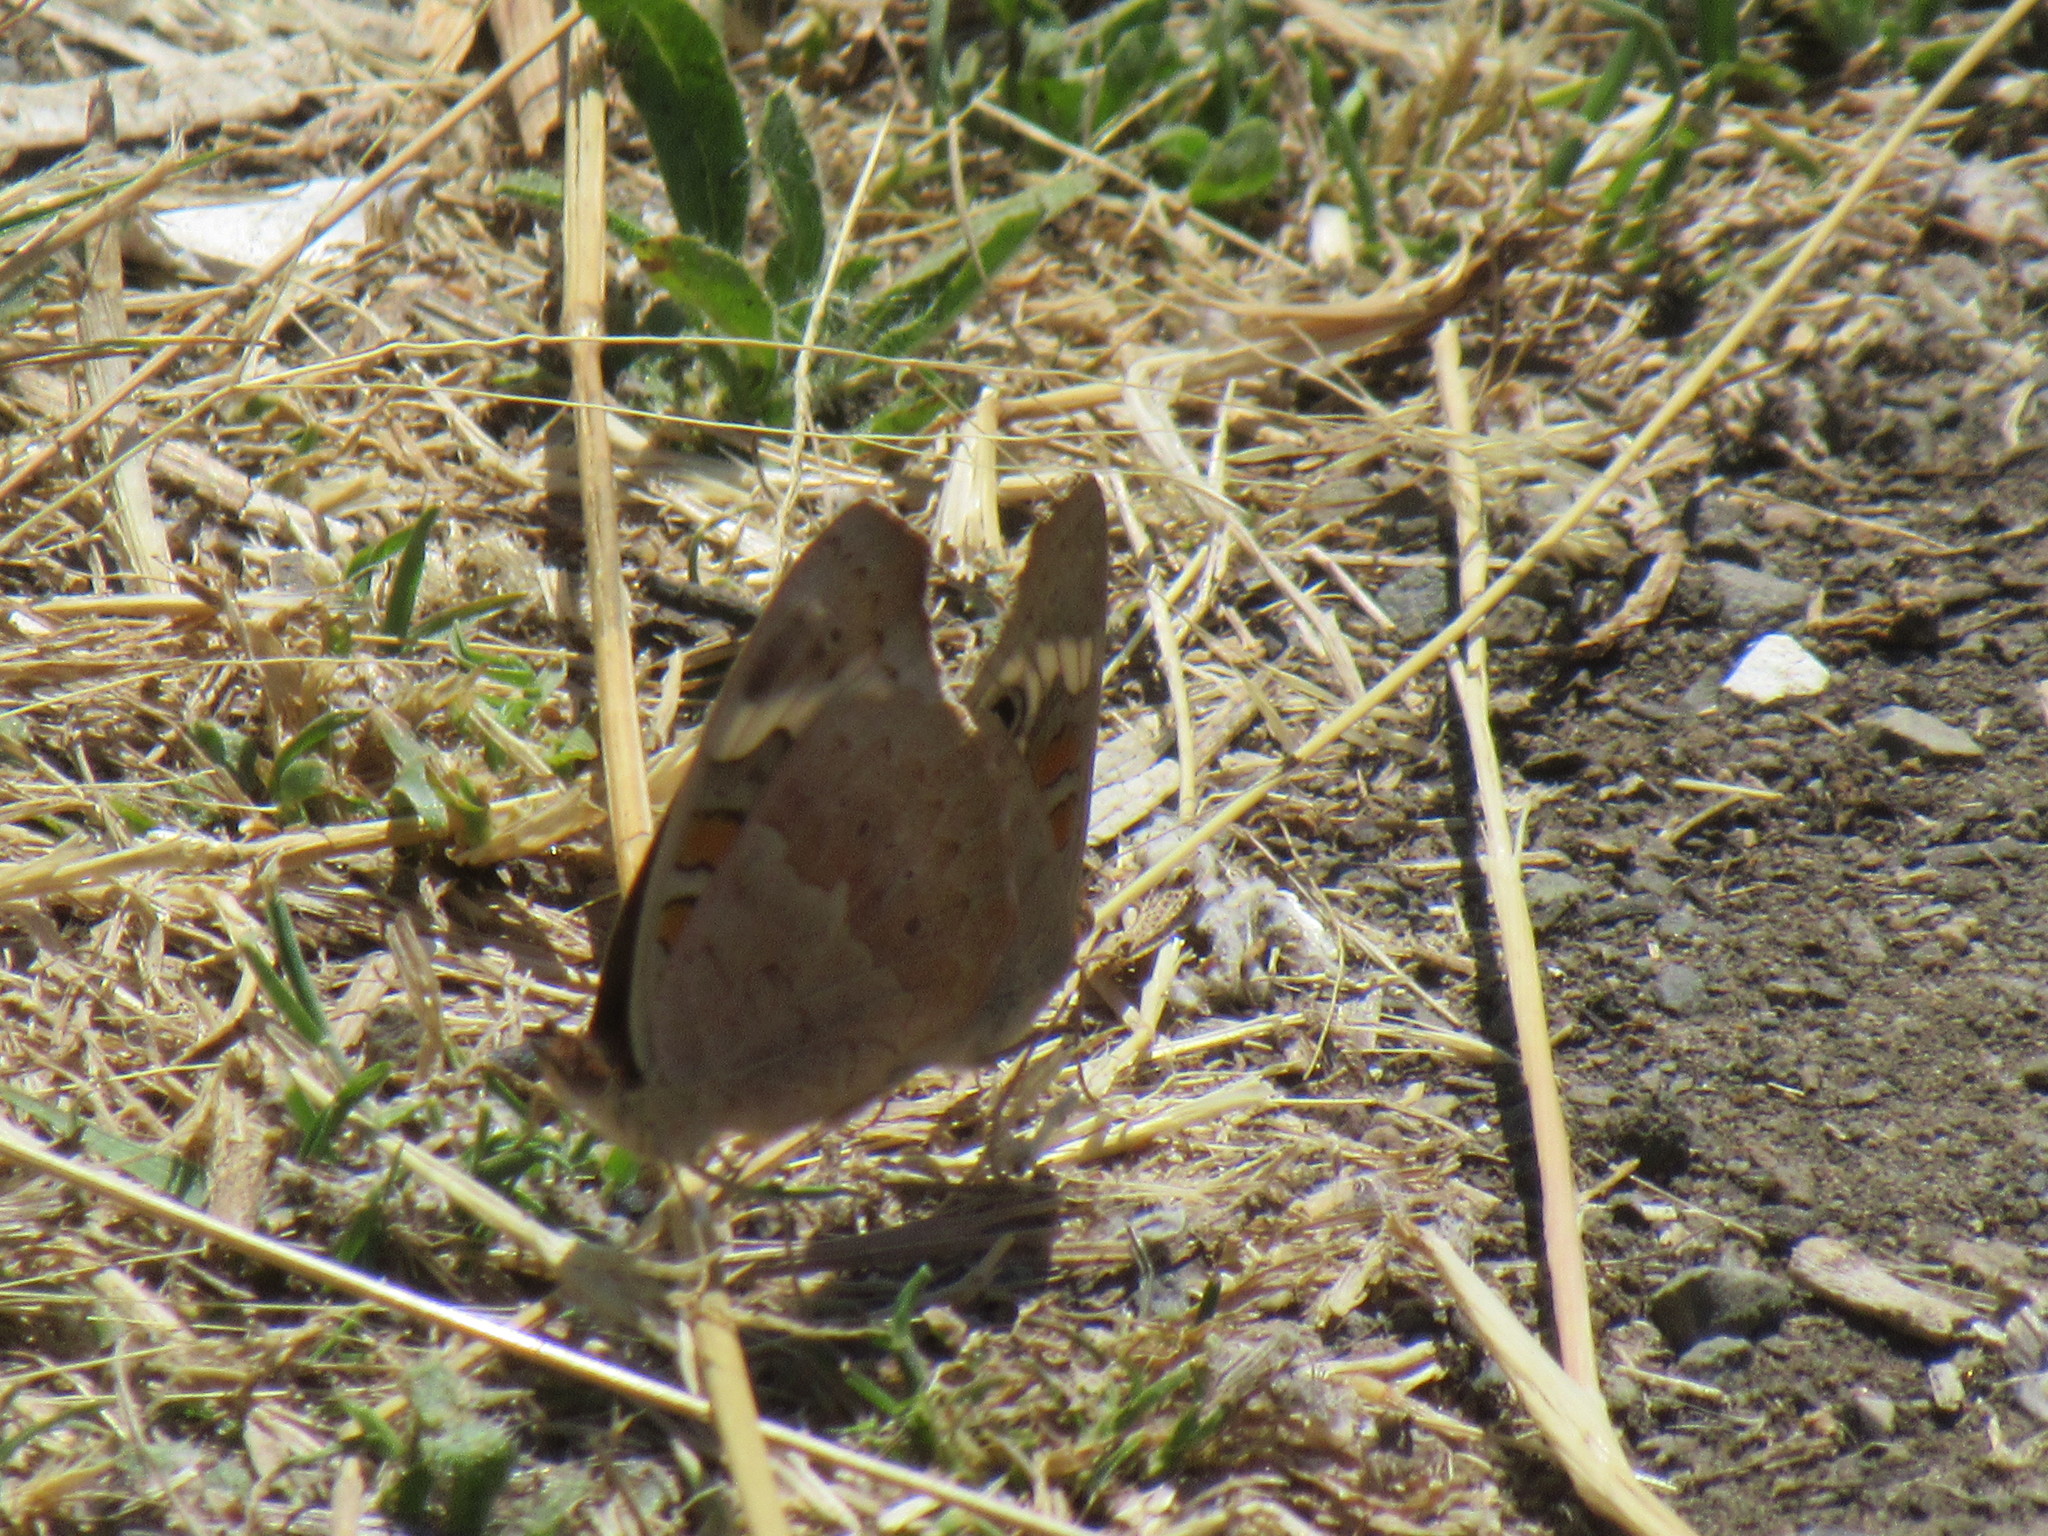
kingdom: Animalia
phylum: Arthropoda
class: Insecta
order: Lepidoptera
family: Nymphalidae
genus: Junonia
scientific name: Junonia grisea
